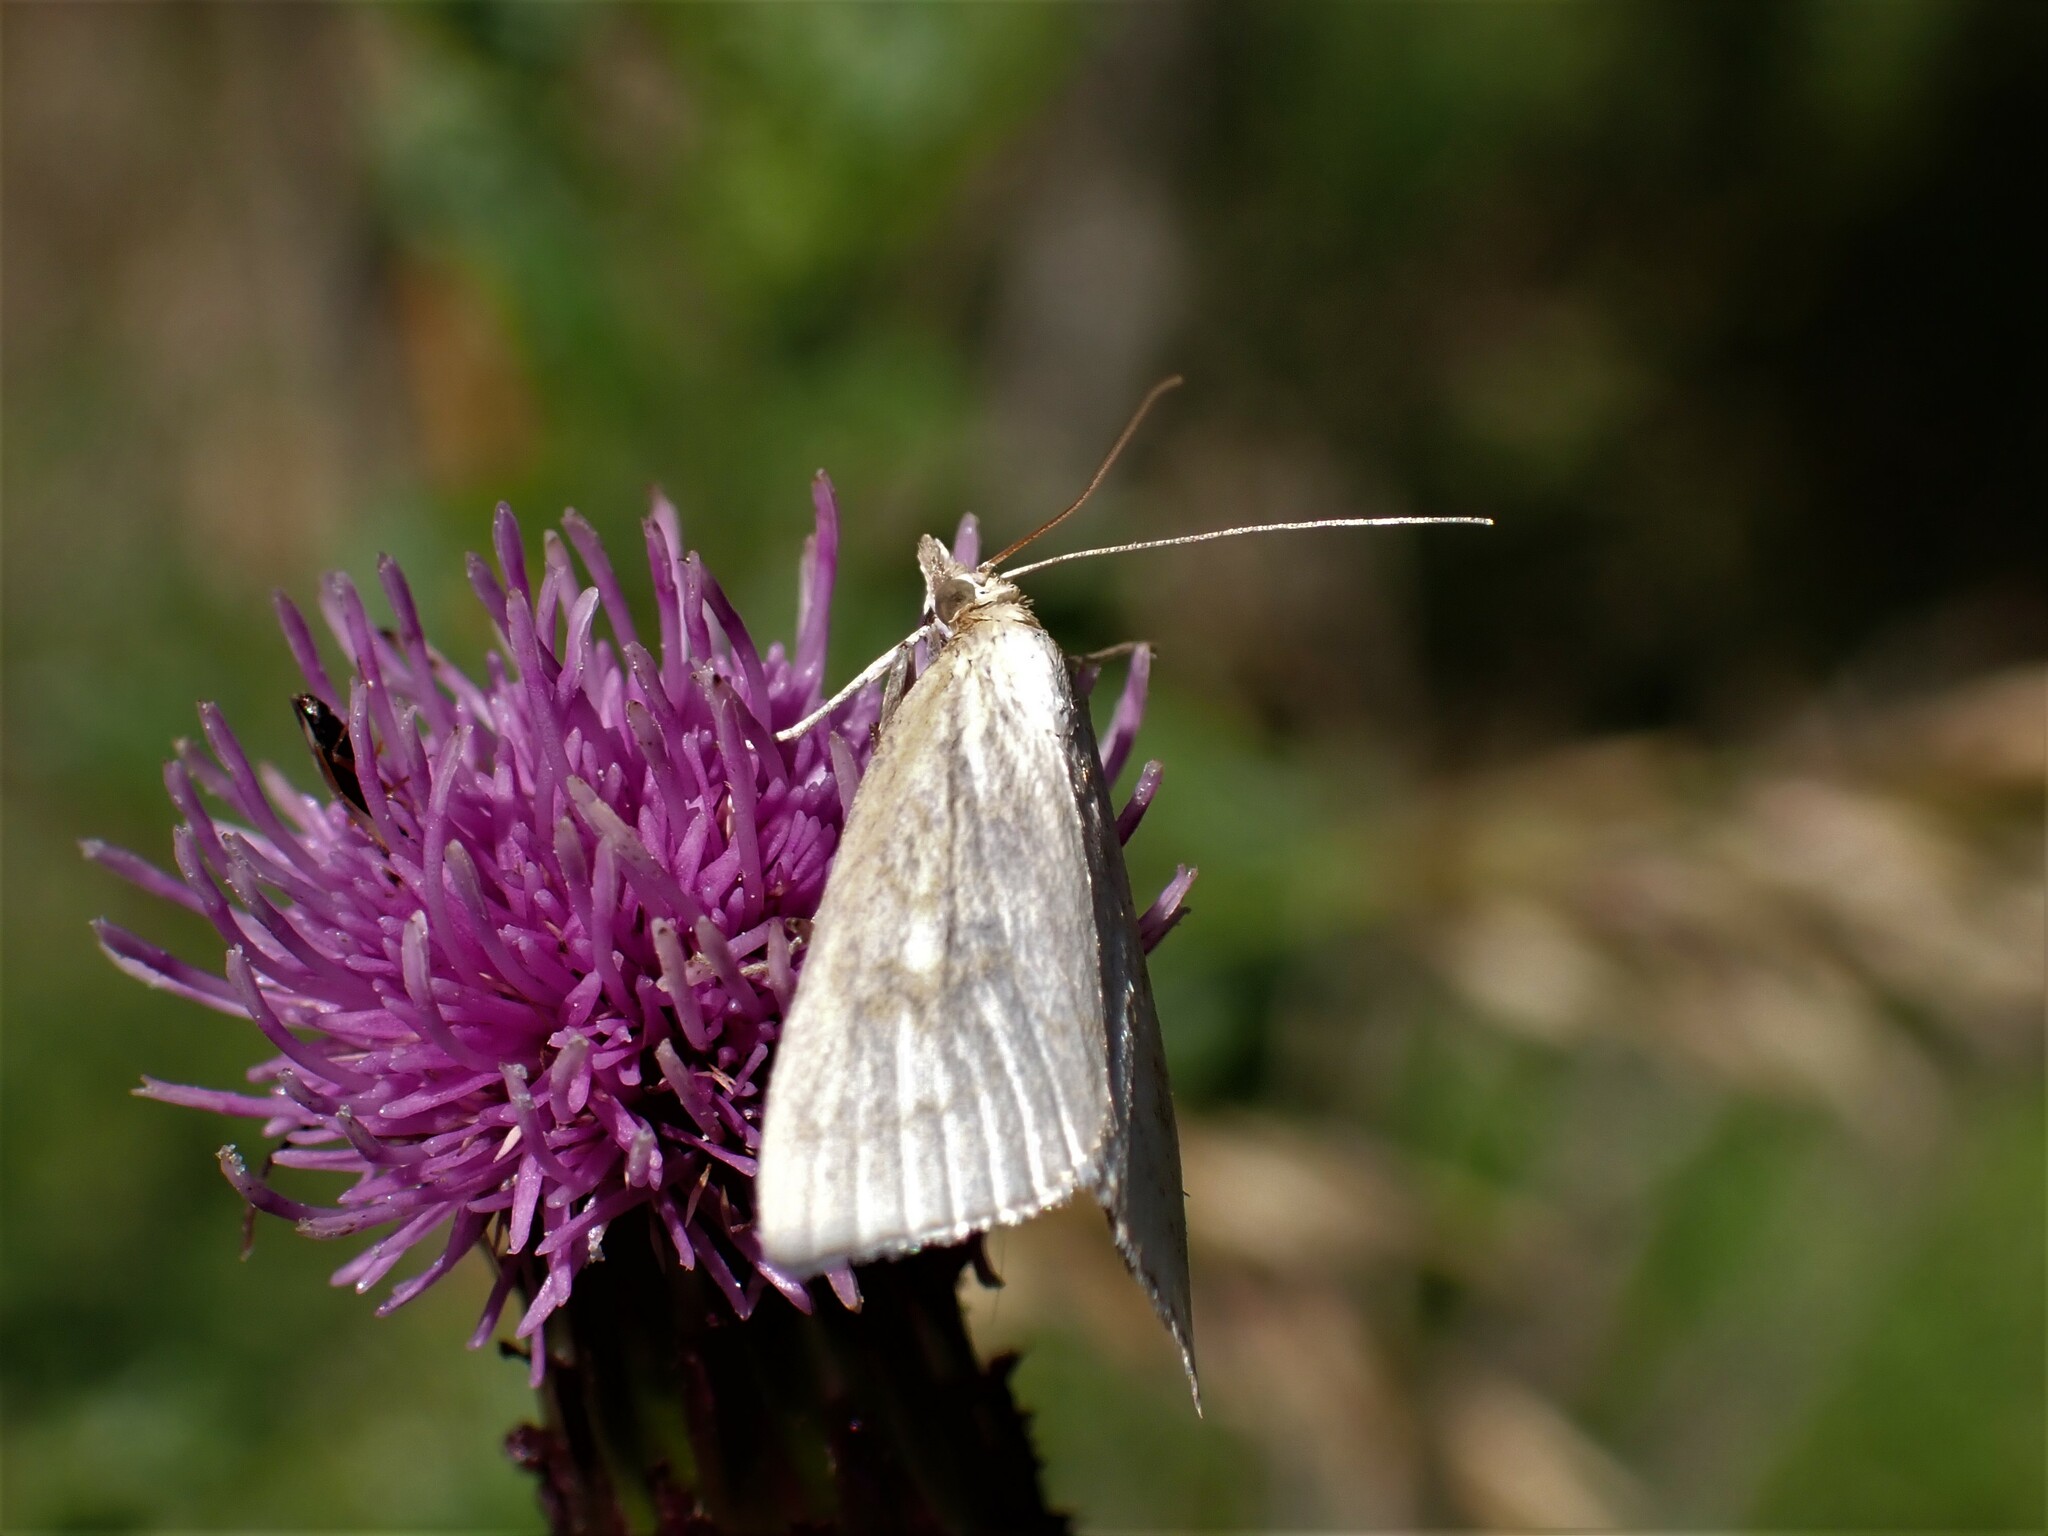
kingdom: Animalia
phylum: Arthropoda
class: Insecta
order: Lepidoptera
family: Crambidae
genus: Udea
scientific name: Udea lutealis
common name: Pale straw pearl
